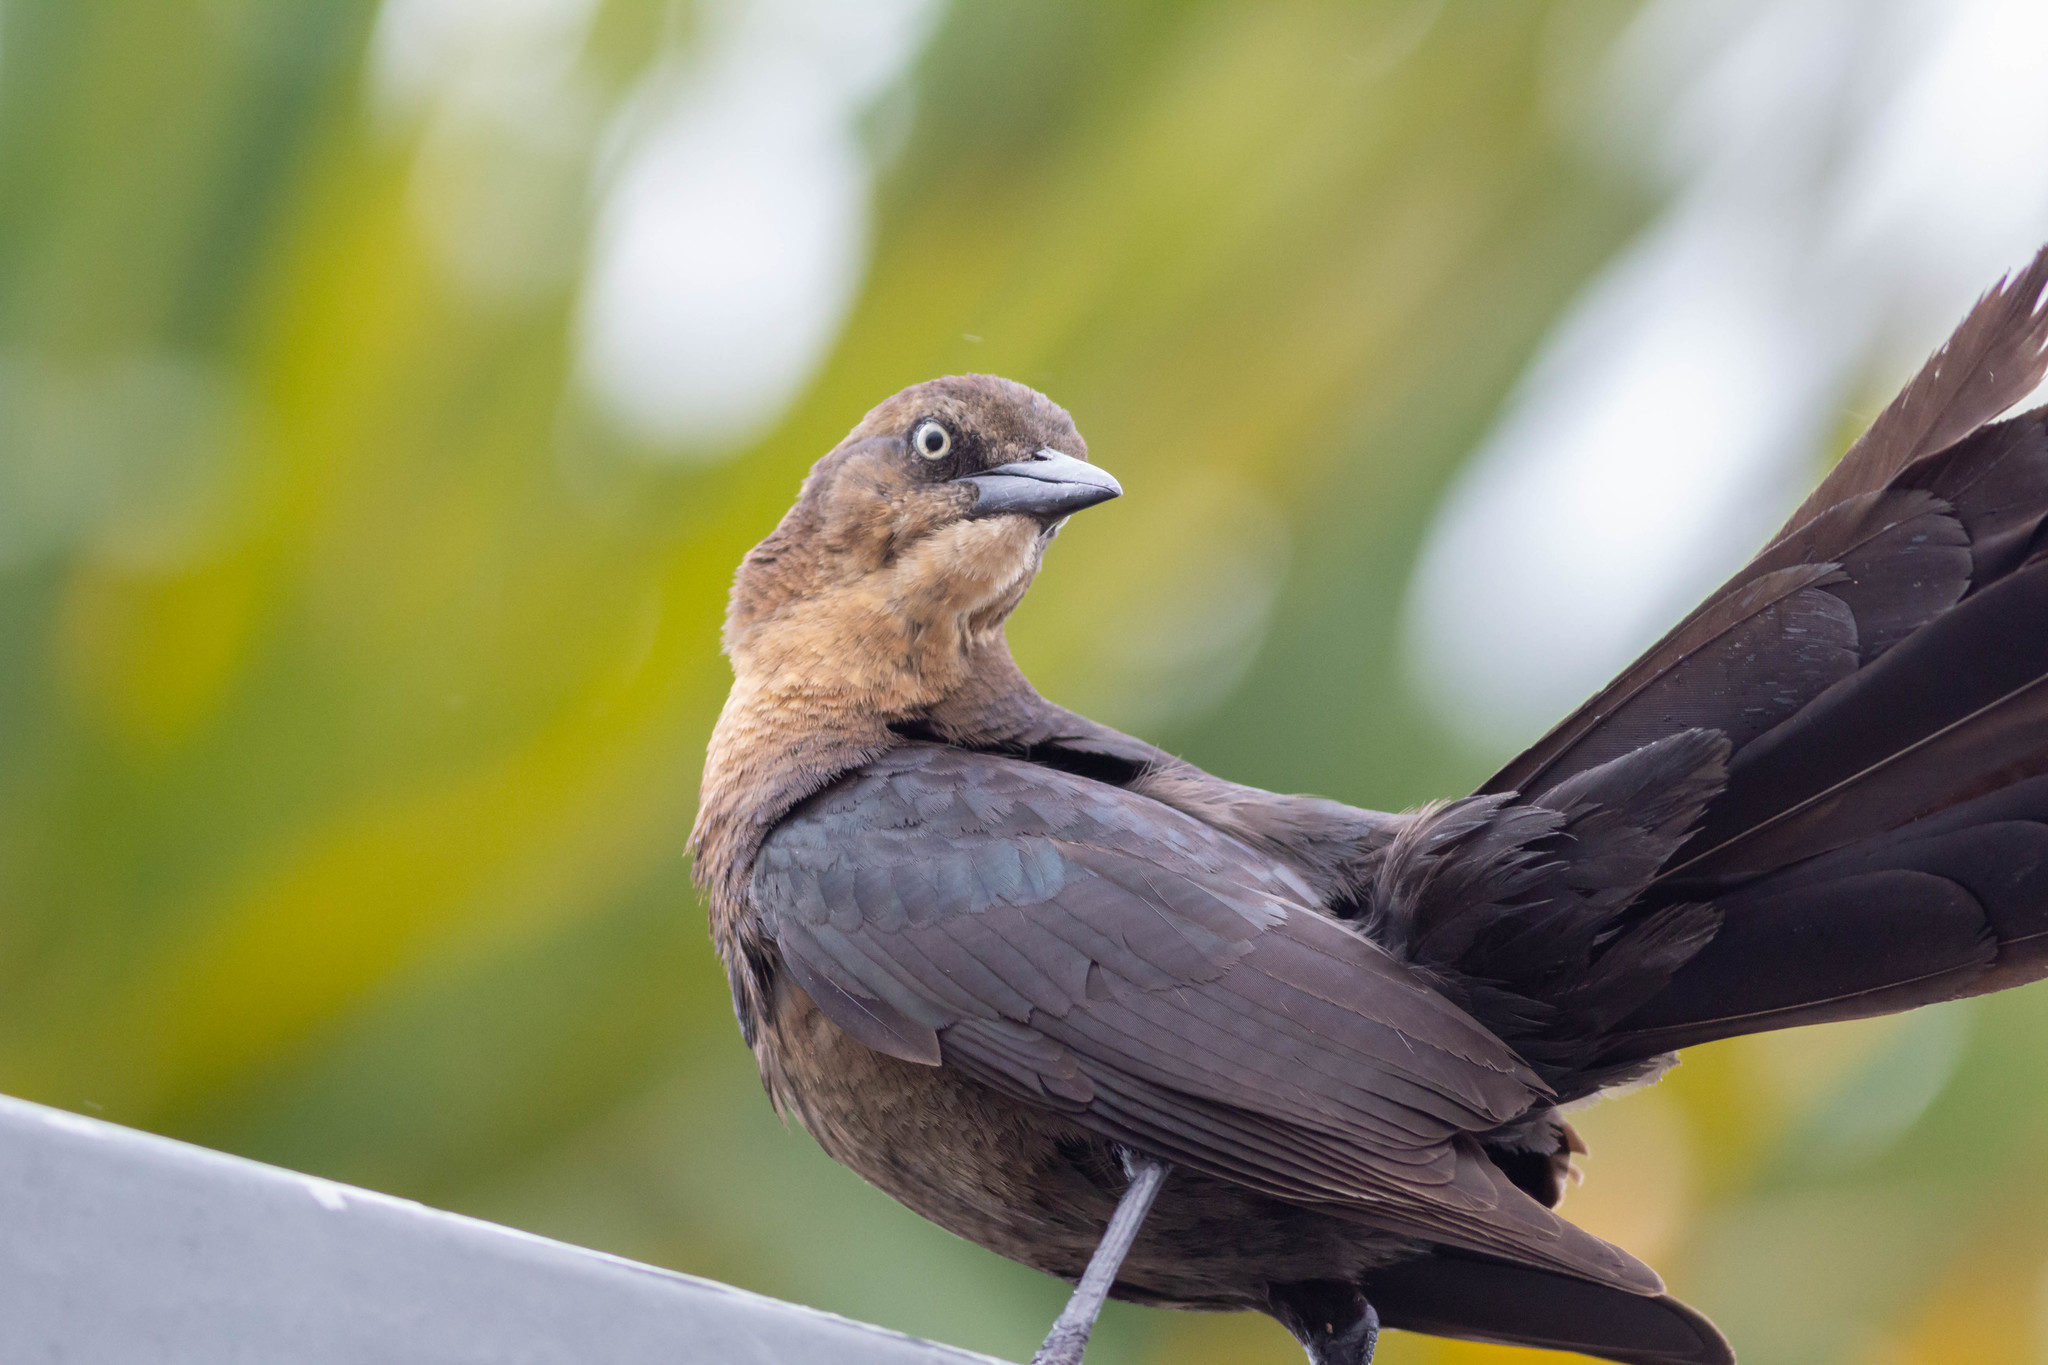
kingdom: Animalia
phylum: Chordata
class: Aves
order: Passeriformes
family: Icteridae
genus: Quiscalus
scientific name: Quiscalus mexicanus
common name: Great-tailed grackle
